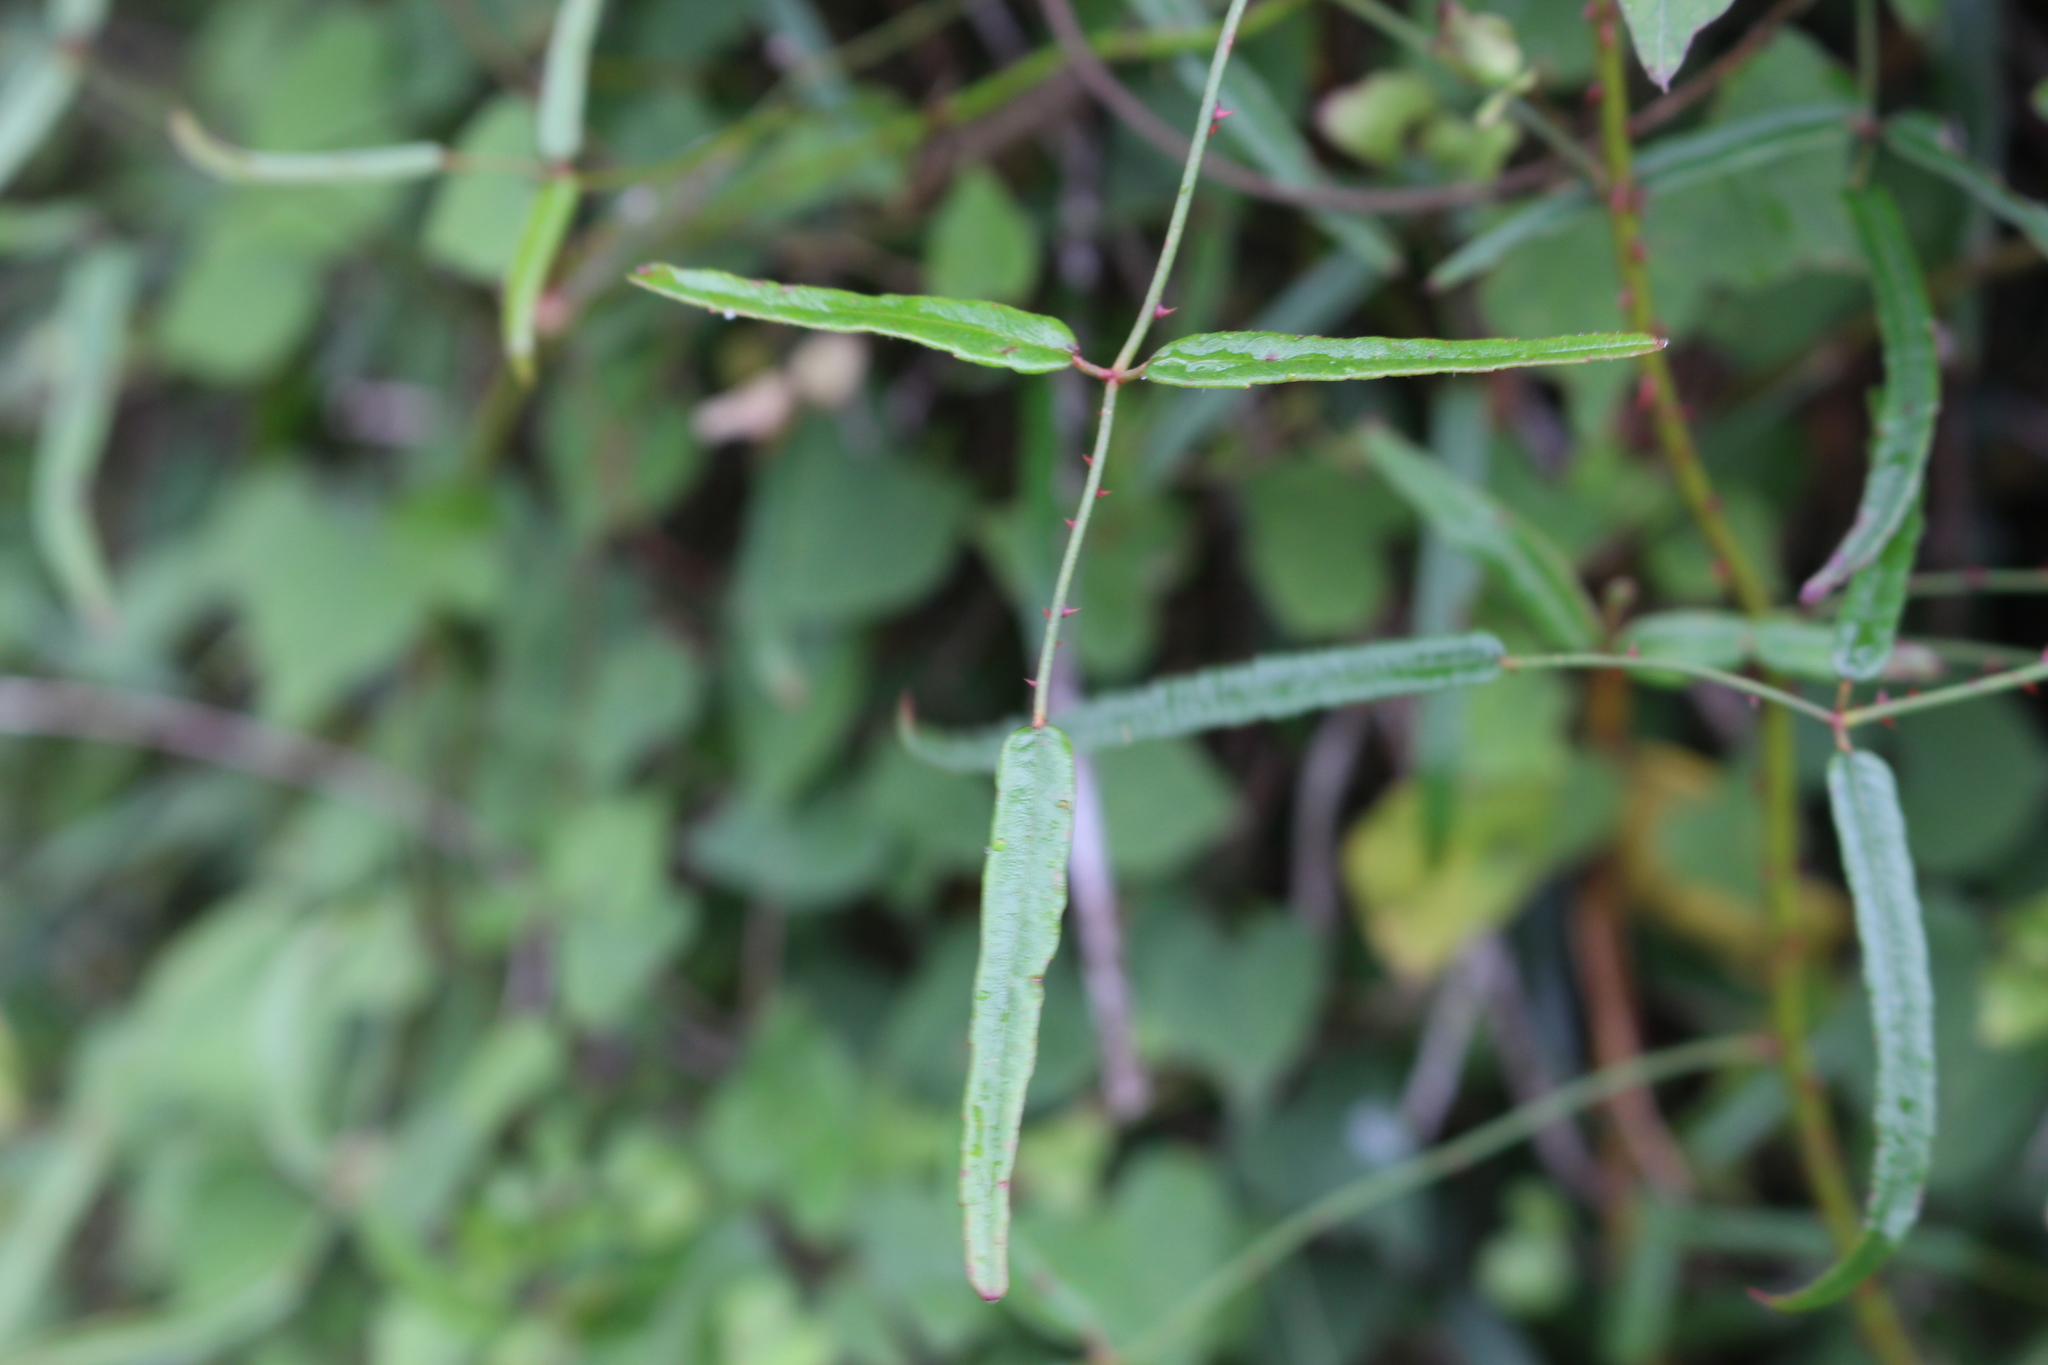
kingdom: Plantae
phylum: Tracheophyta
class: Magnoliopsida
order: Rosales
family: Rosaceae
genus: Rubus
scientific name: Rubus schmidelioides
